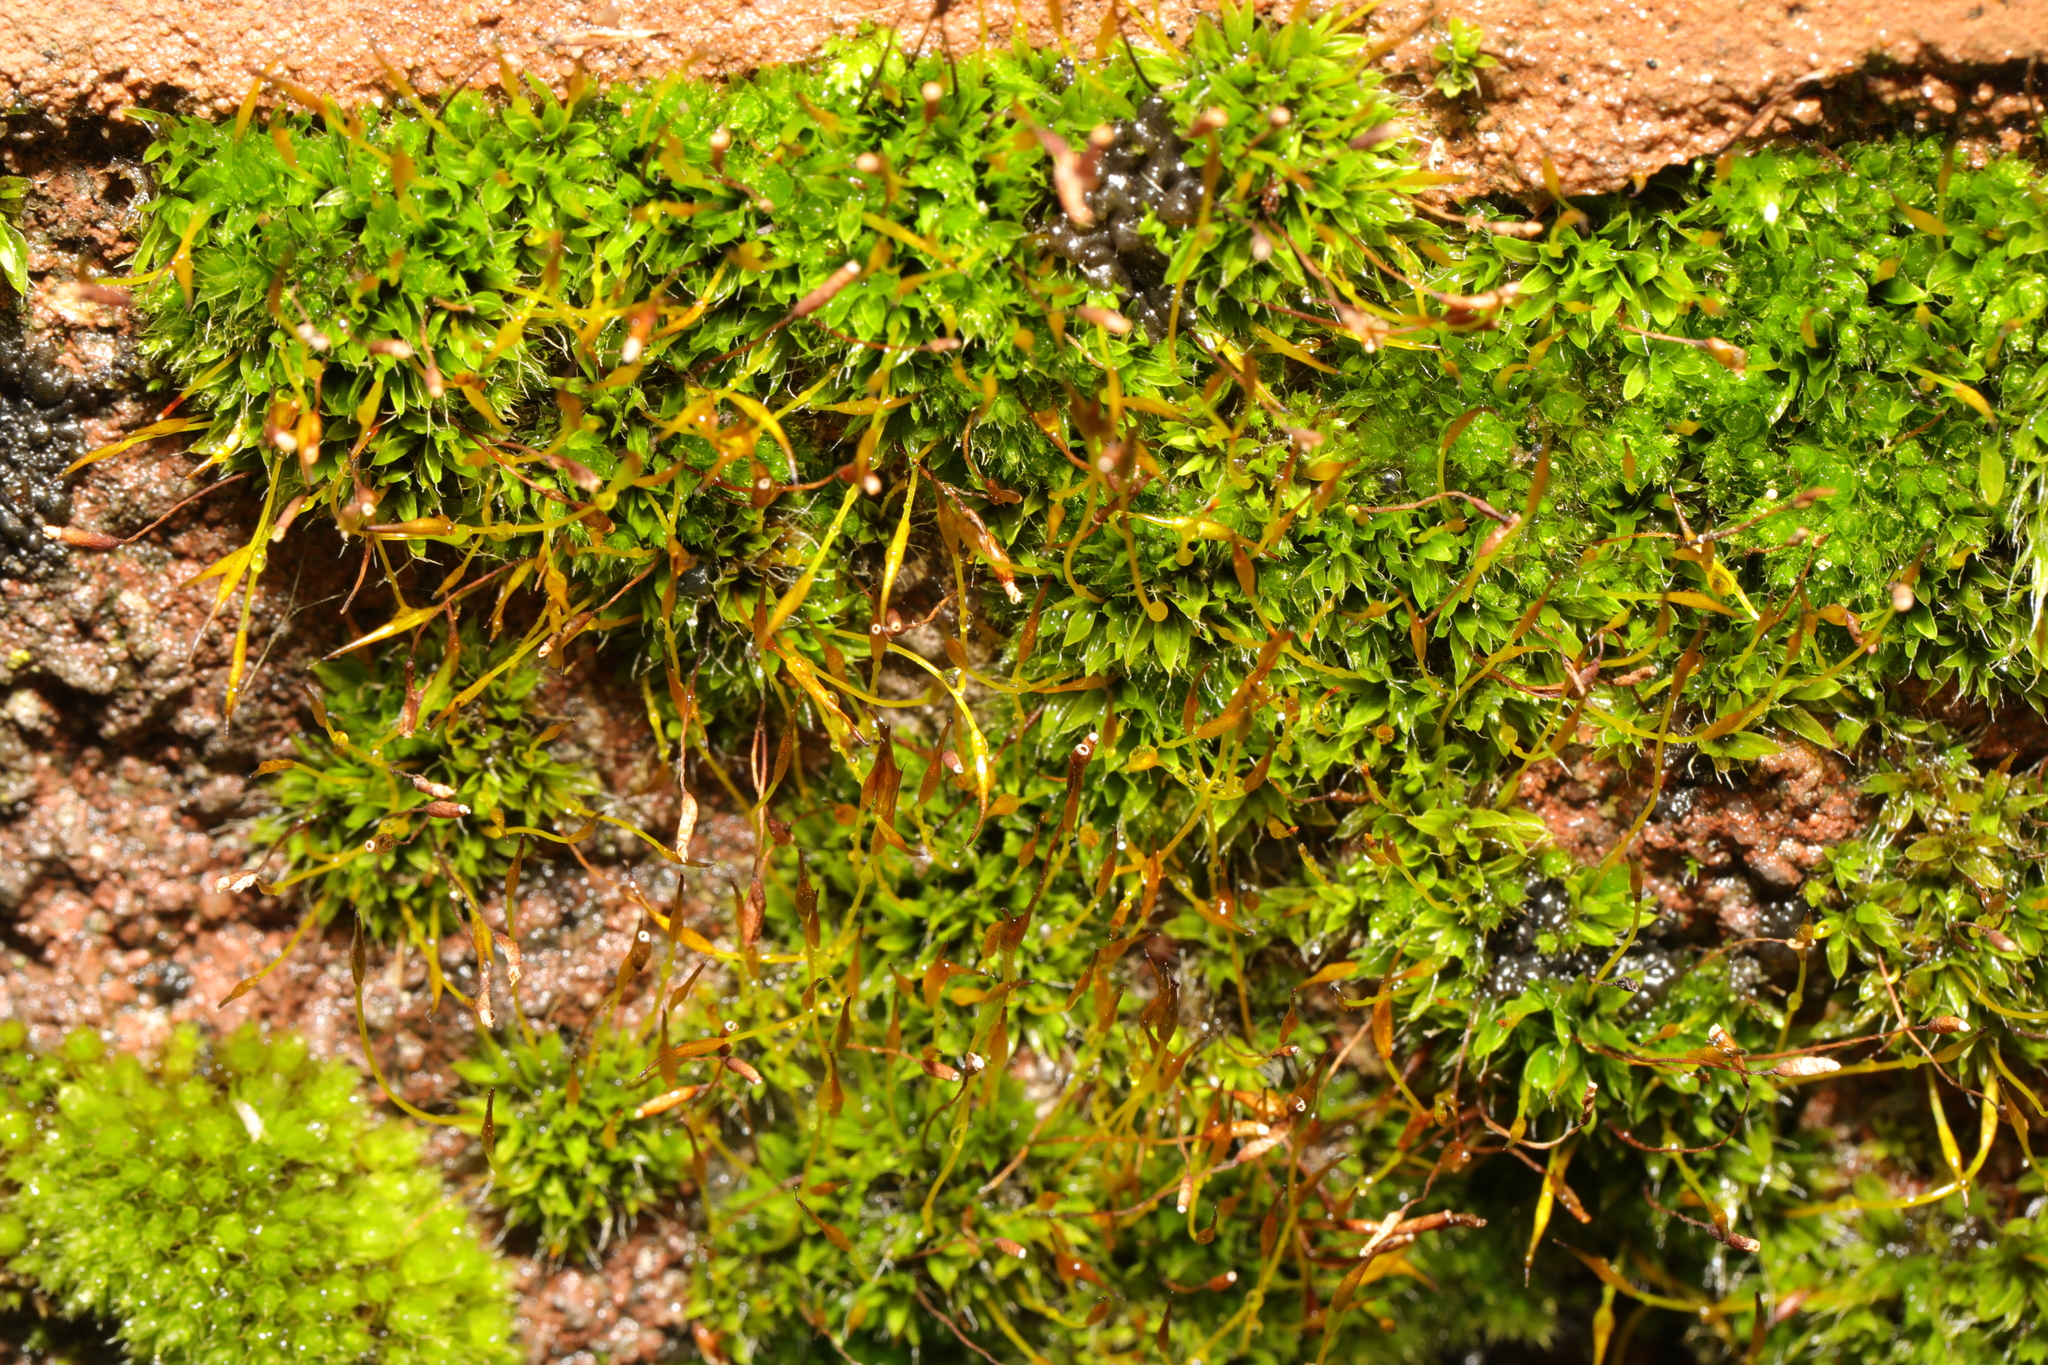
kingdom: Plantae
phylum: Bryophyta
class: Bryopsida
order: Pottiales
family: Pottiaceae
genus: Tortula
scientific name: Tortula muralis
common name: Wall screw-moss
